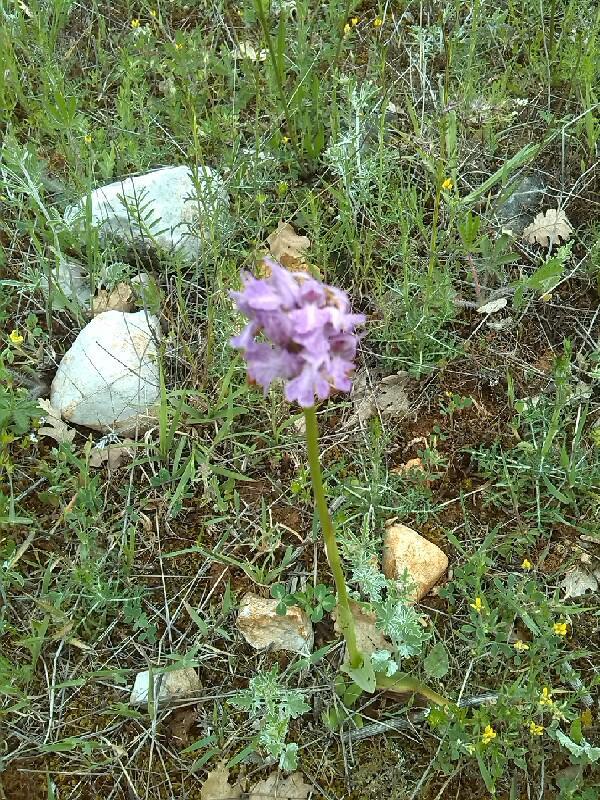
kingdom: Plantae
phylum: Tracheophyta
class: Liliopsida
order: Asparagales
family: Orchidaceae
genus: Neotinea
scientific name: Neotinea tridentata
